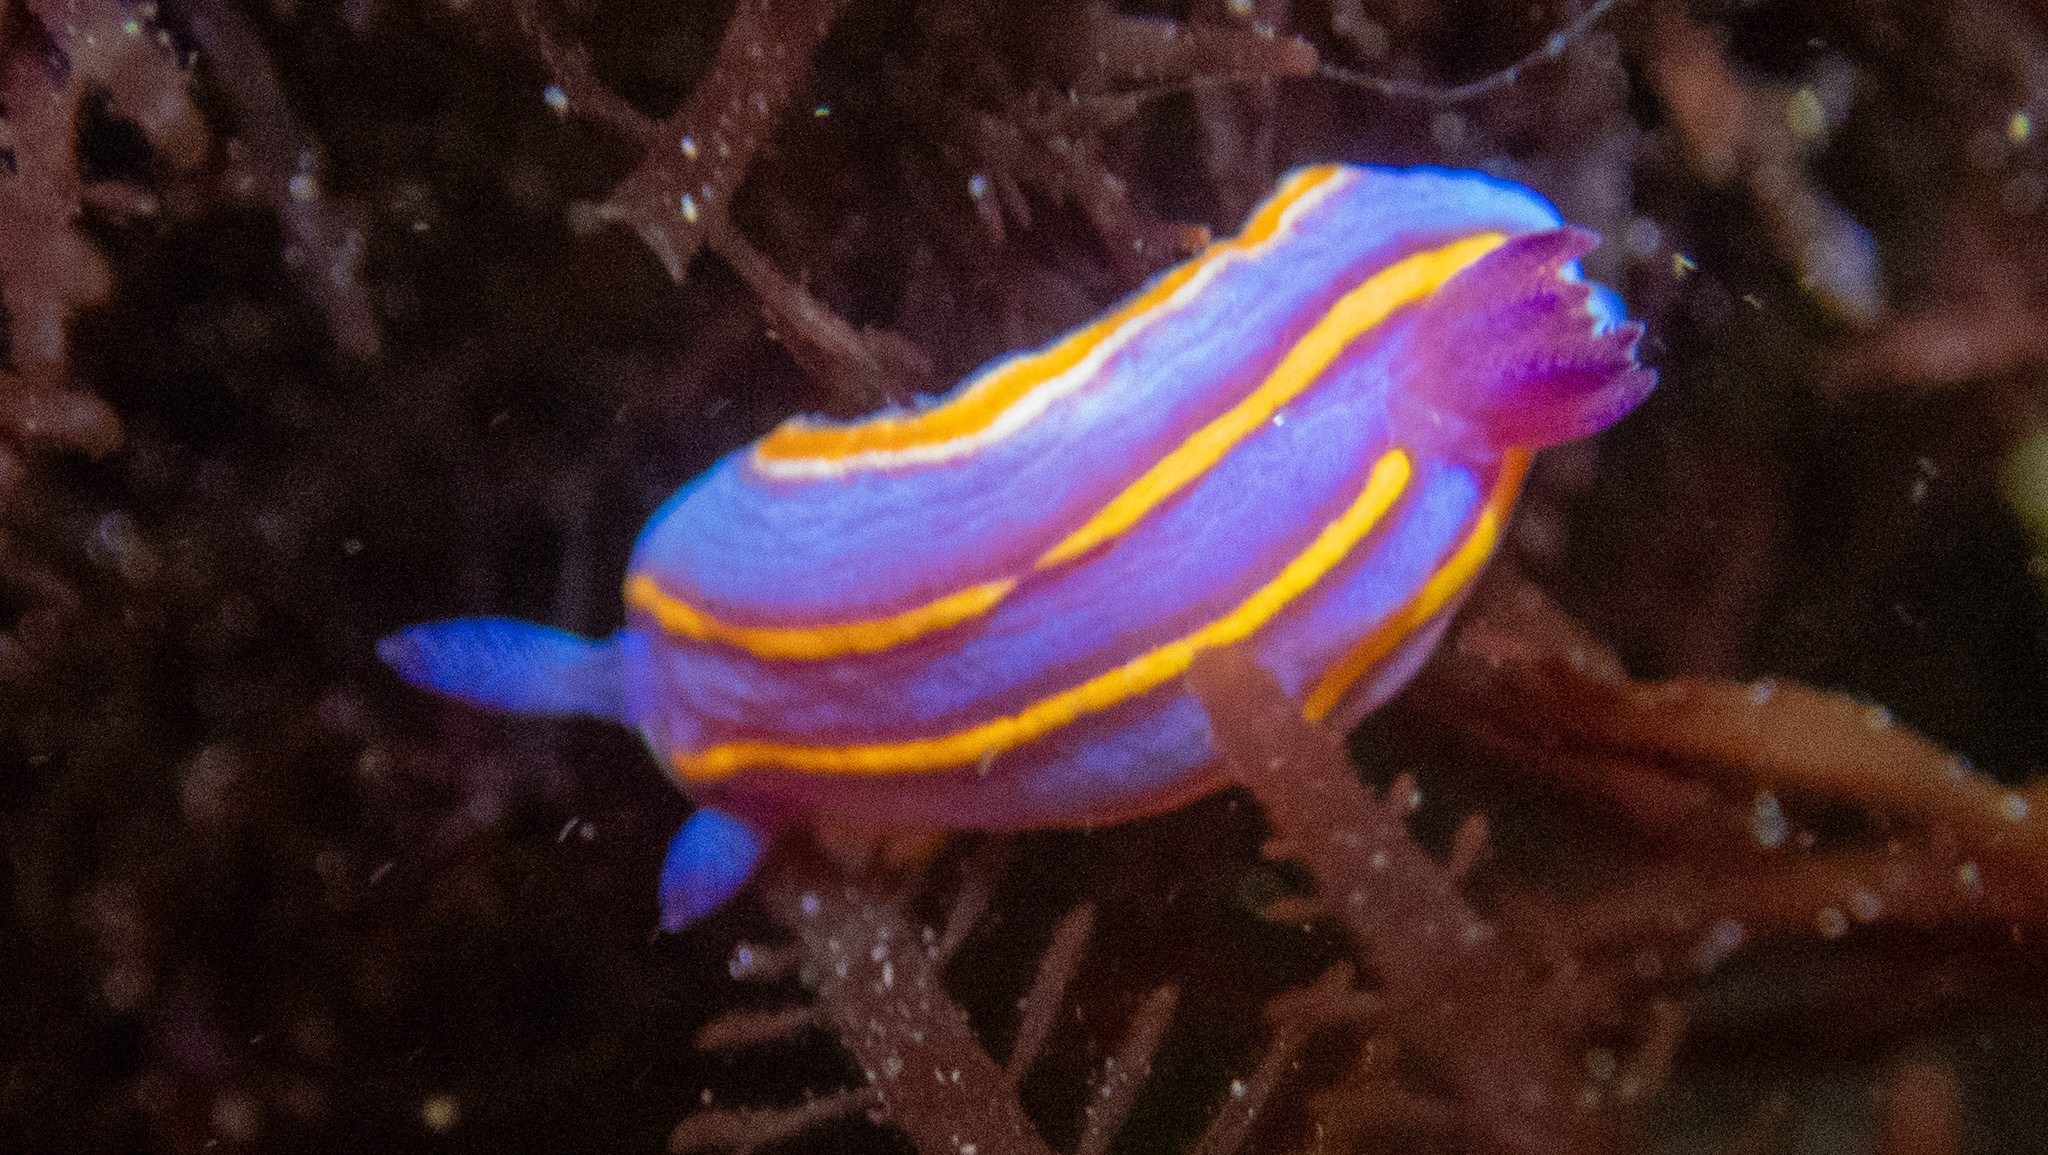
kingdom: Animalia
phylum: Mollusca
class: Gastropoda
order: Nudibranchia
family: Chromodorididae
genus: Felimida
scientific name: Felimida macfarlandi
